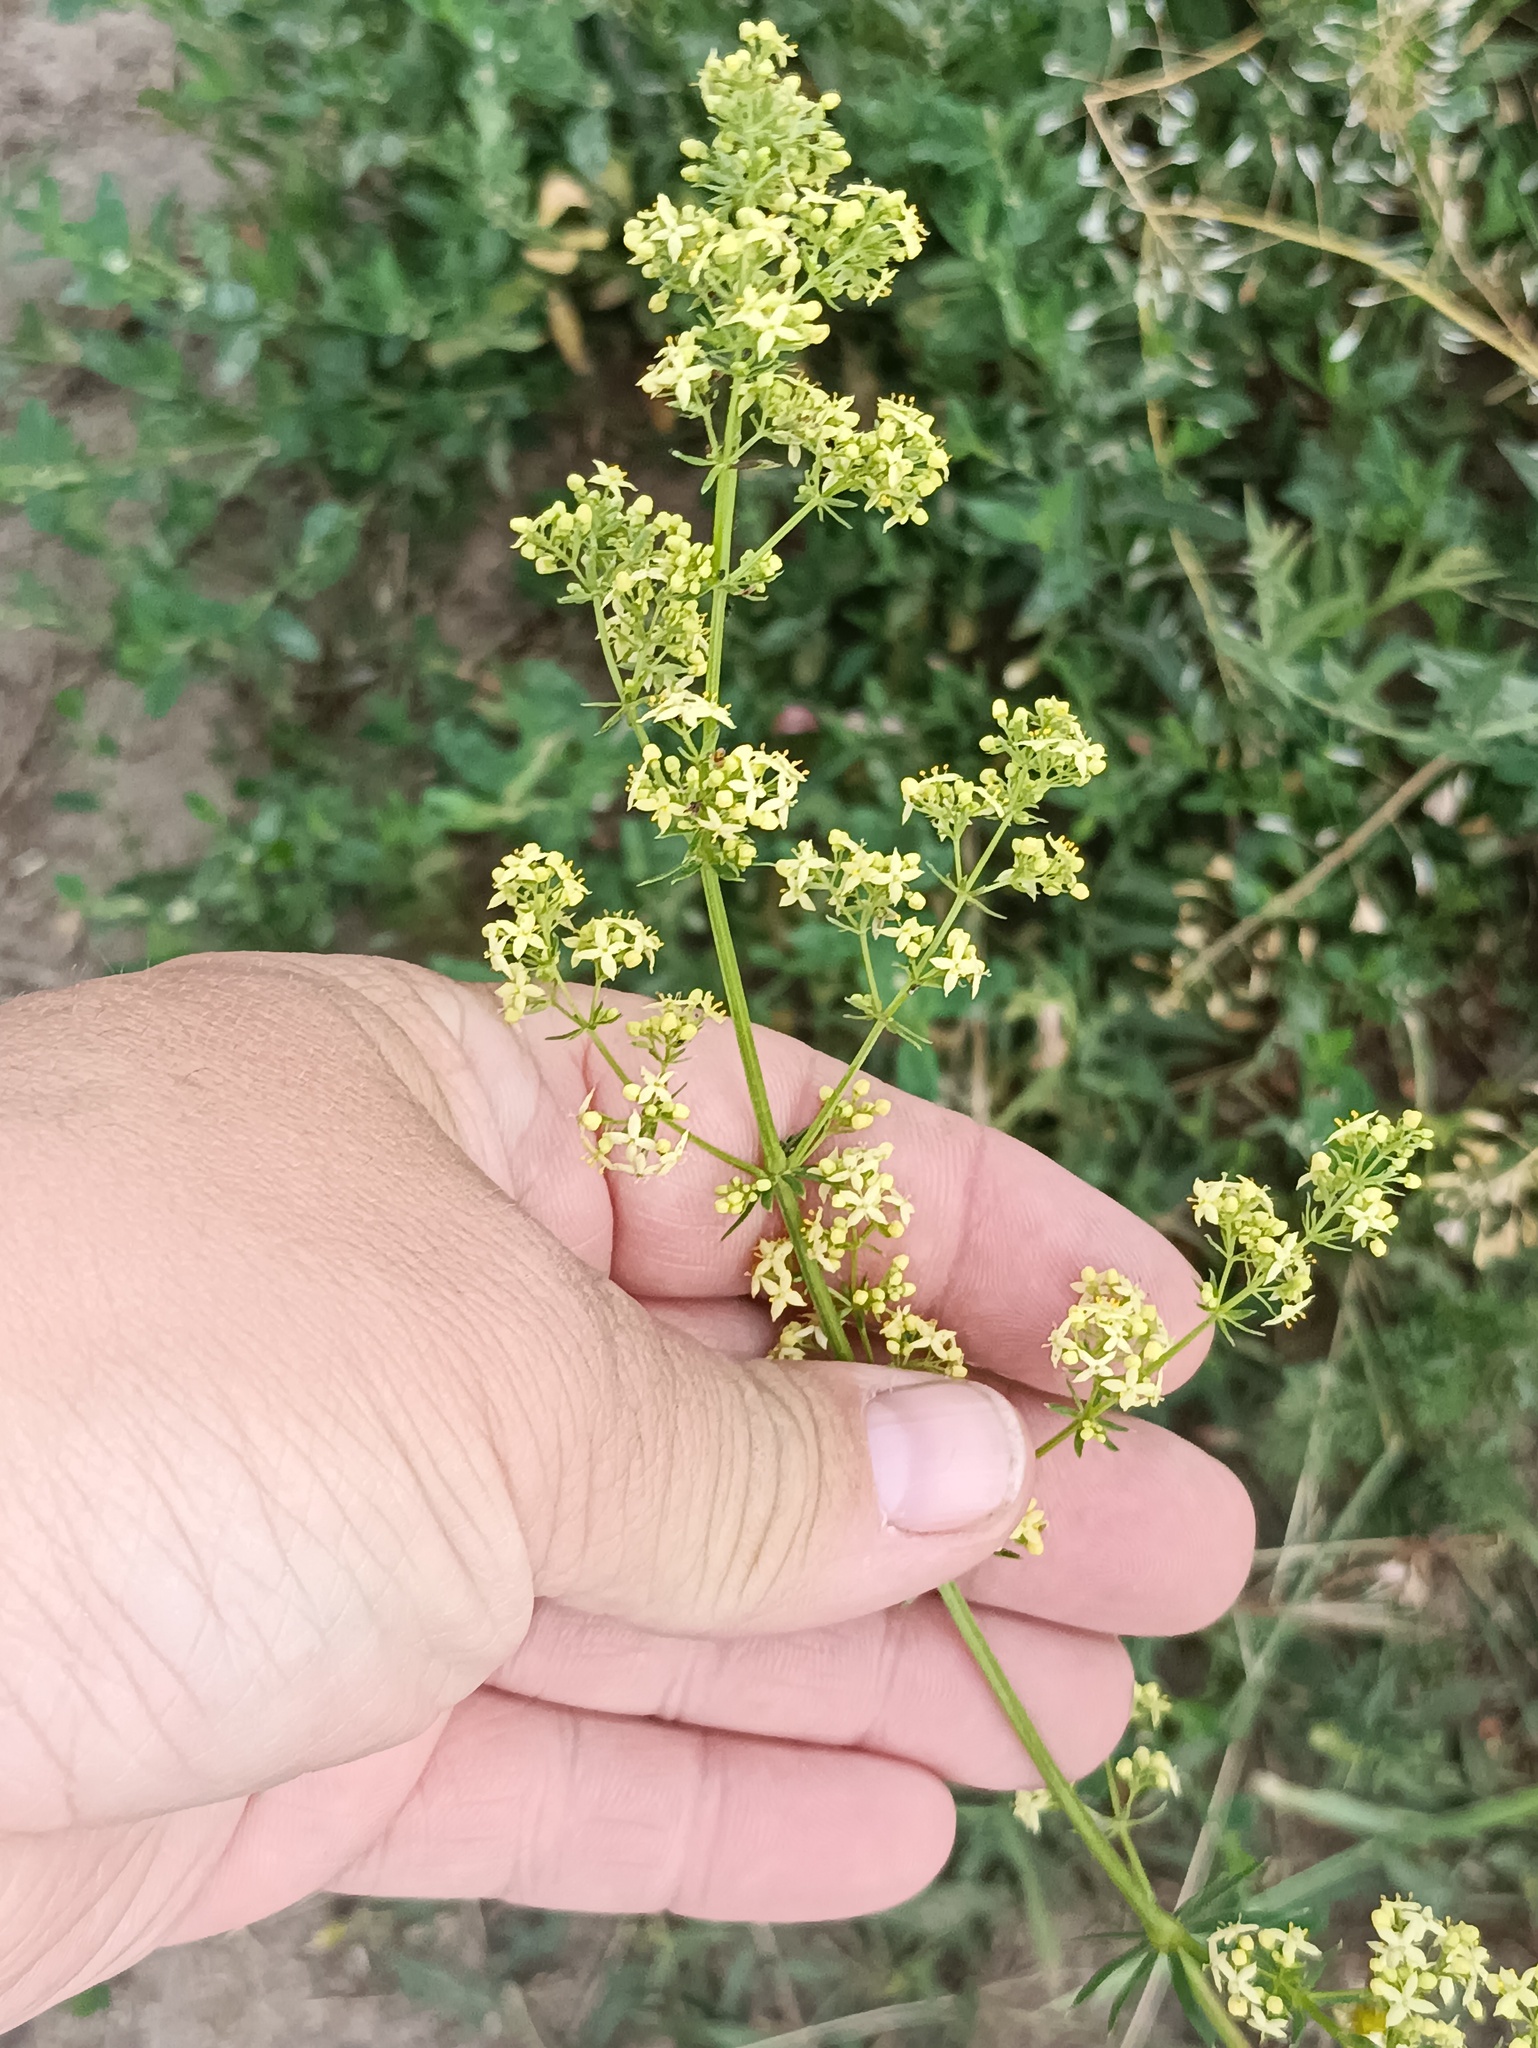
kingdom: Plantae
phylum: Tracheophyta
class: Magnoliopsida
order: Gentianales
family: Rubiaceae
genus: Galium
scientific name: Galium pomeranicum
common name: Bedstraw
